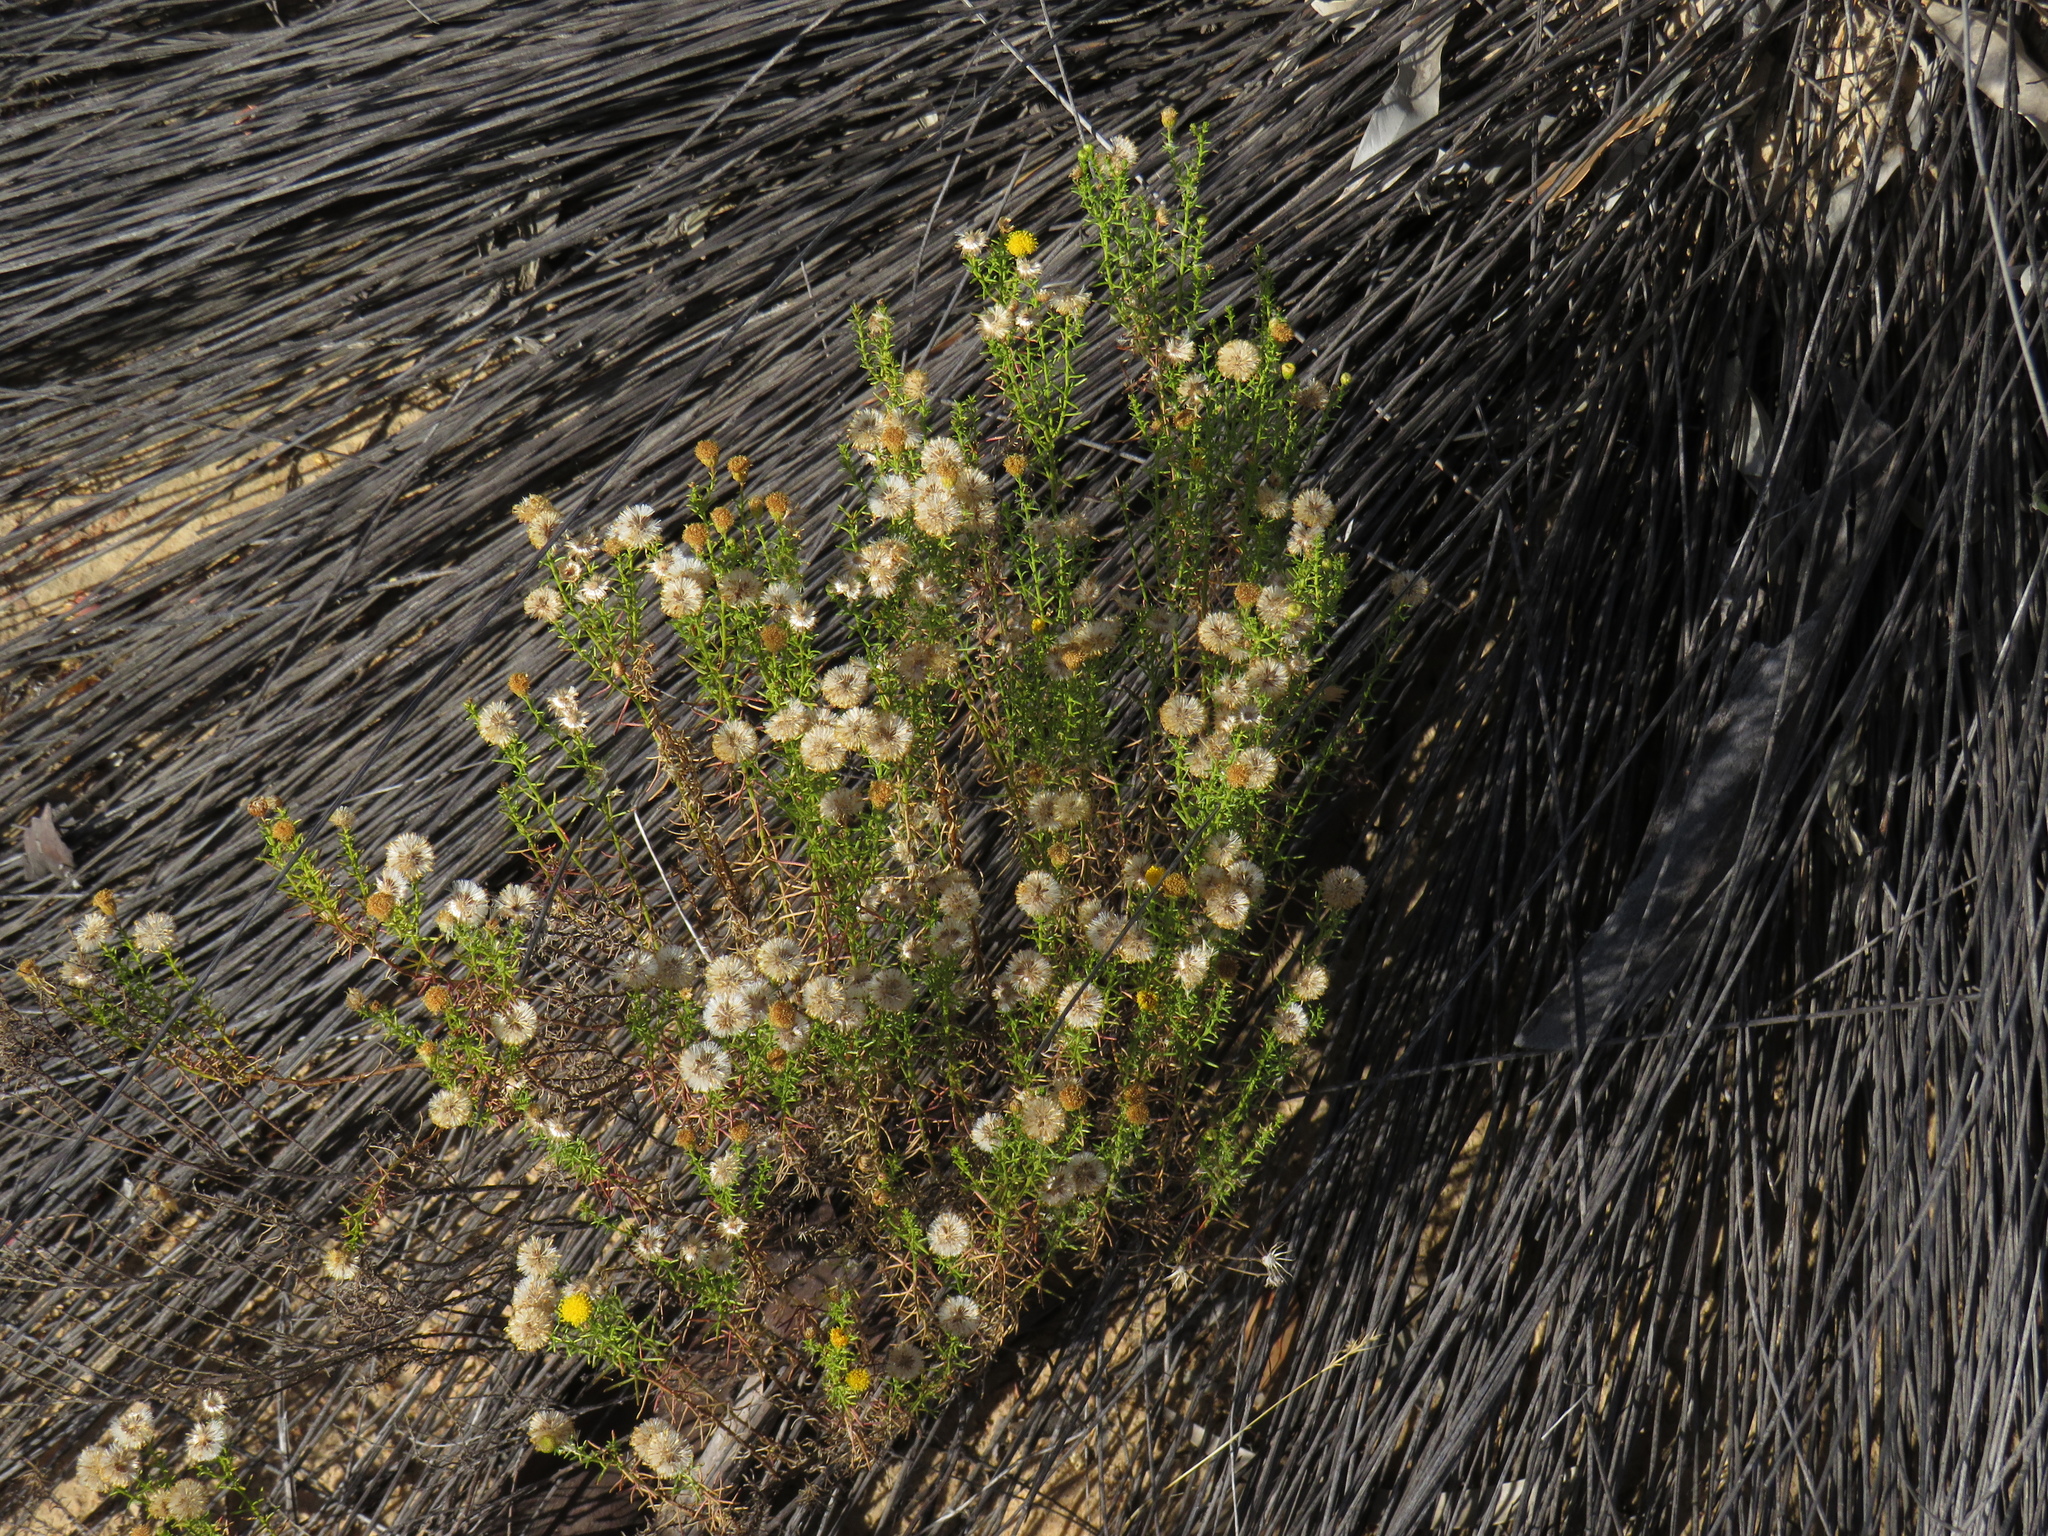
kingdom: Plantae
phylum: Tracheophyta
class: Magnoliopsida
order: Asterales
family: Asteraceae
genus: Chrysocoma
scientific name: Chrysocoma ciliata
